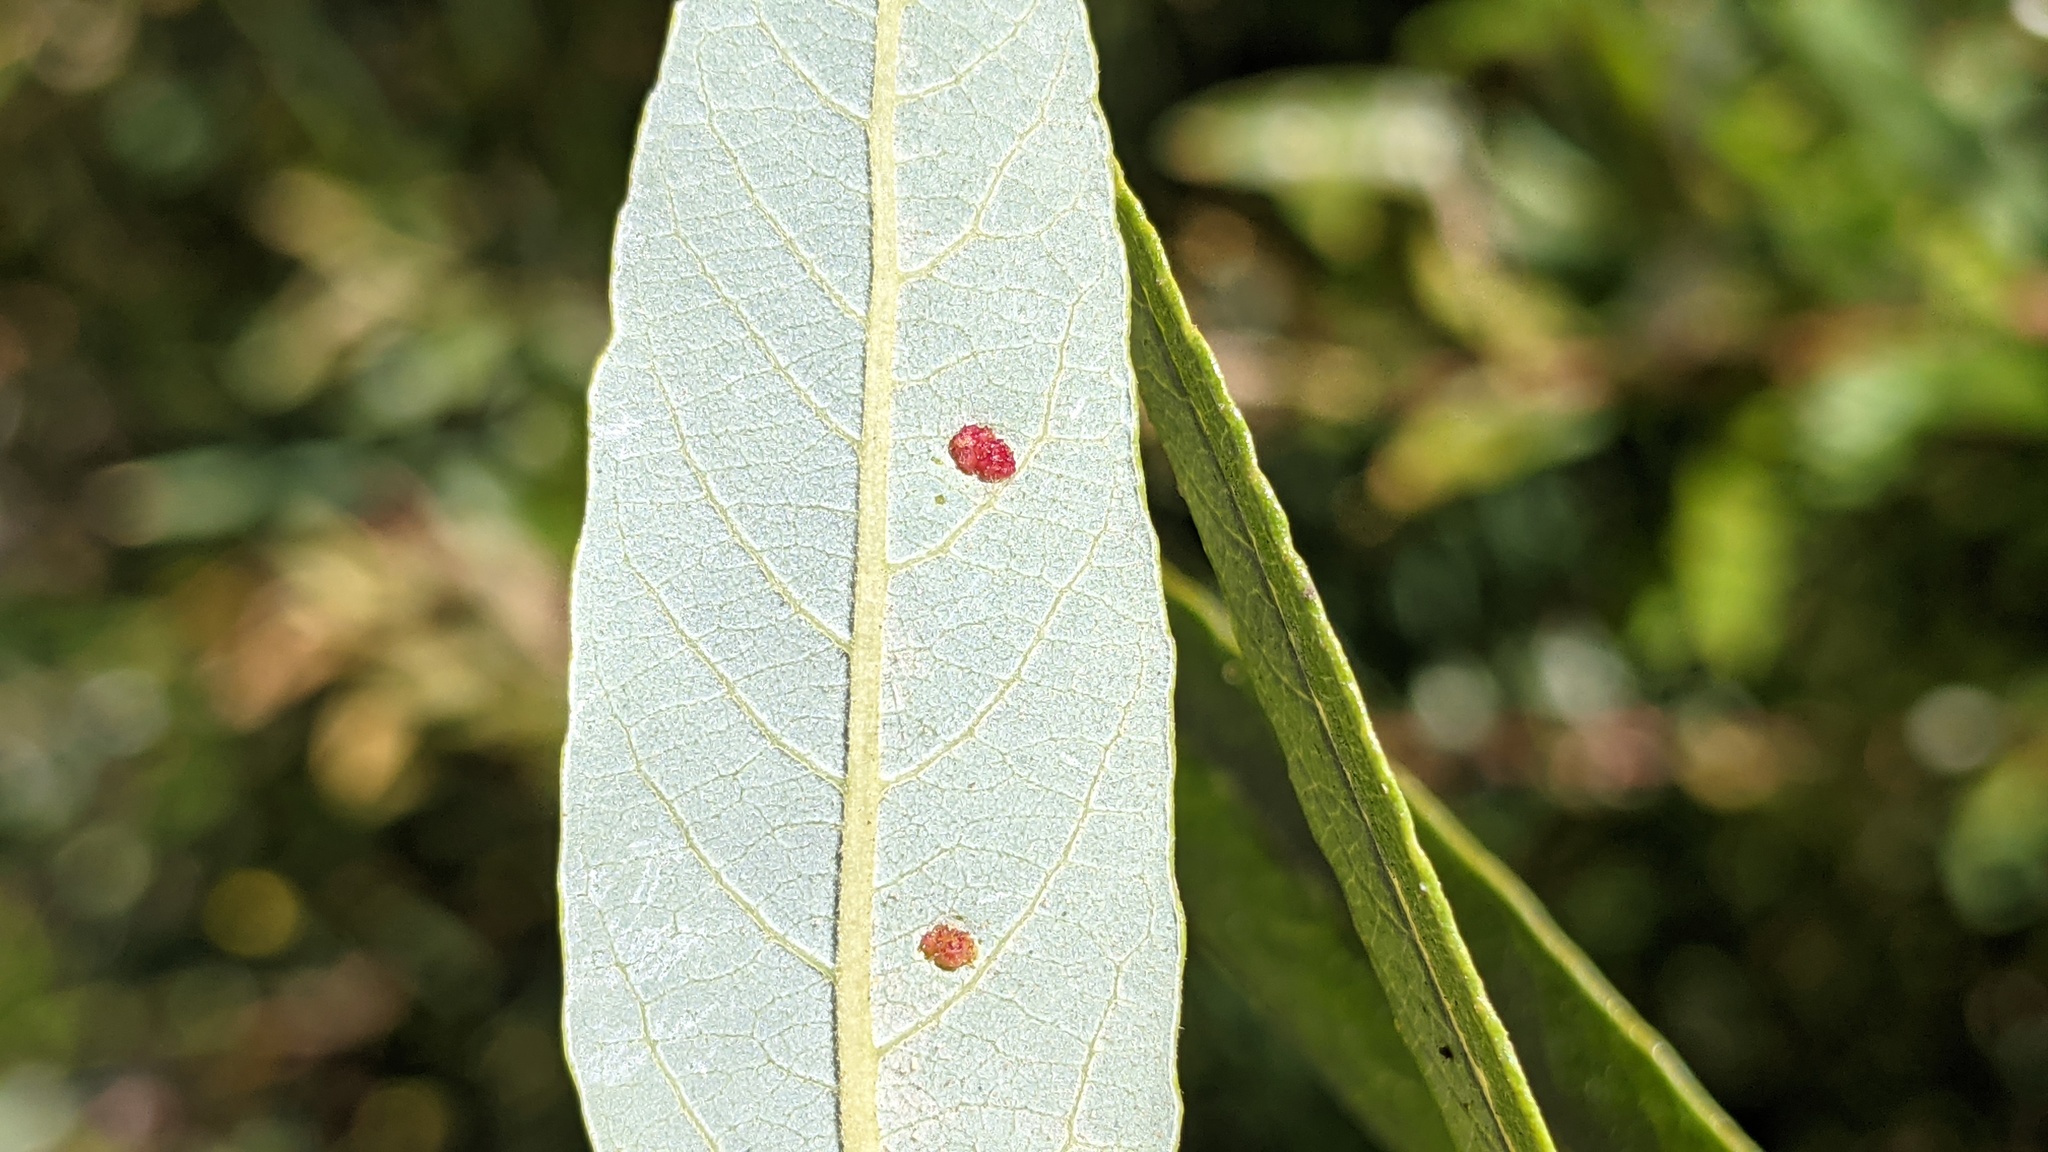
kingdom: Animalia
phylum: Arthropoda
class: Arachnida
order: Trombidiformes
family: Eriophyidae
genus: Aculus
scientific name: Aculus tetanothrix
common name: Willow bead gall mite
